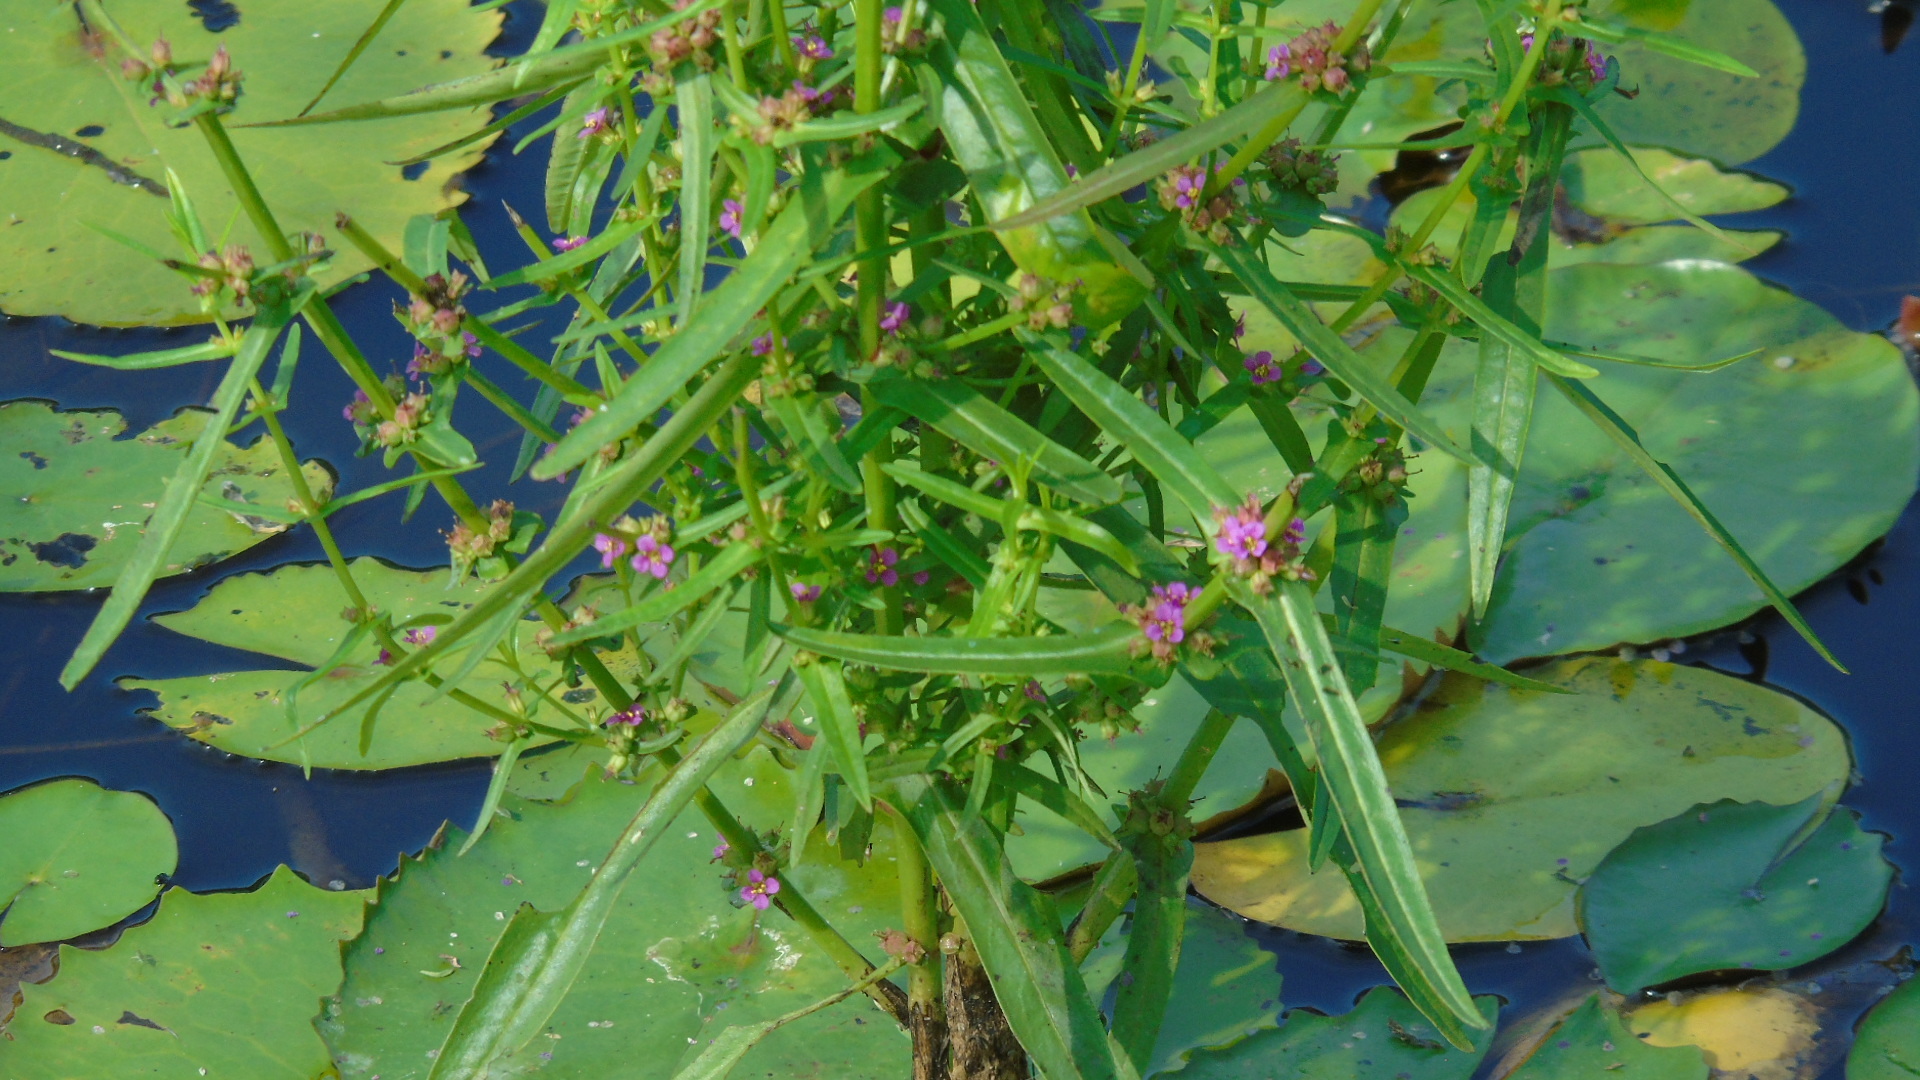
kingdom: Plantae
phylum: Tracheophyta
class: Magnoliopsida
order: Myrtales
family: Lythraceae
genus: Ammannia
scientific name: Ammannia coccinea
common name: Valley redstem
